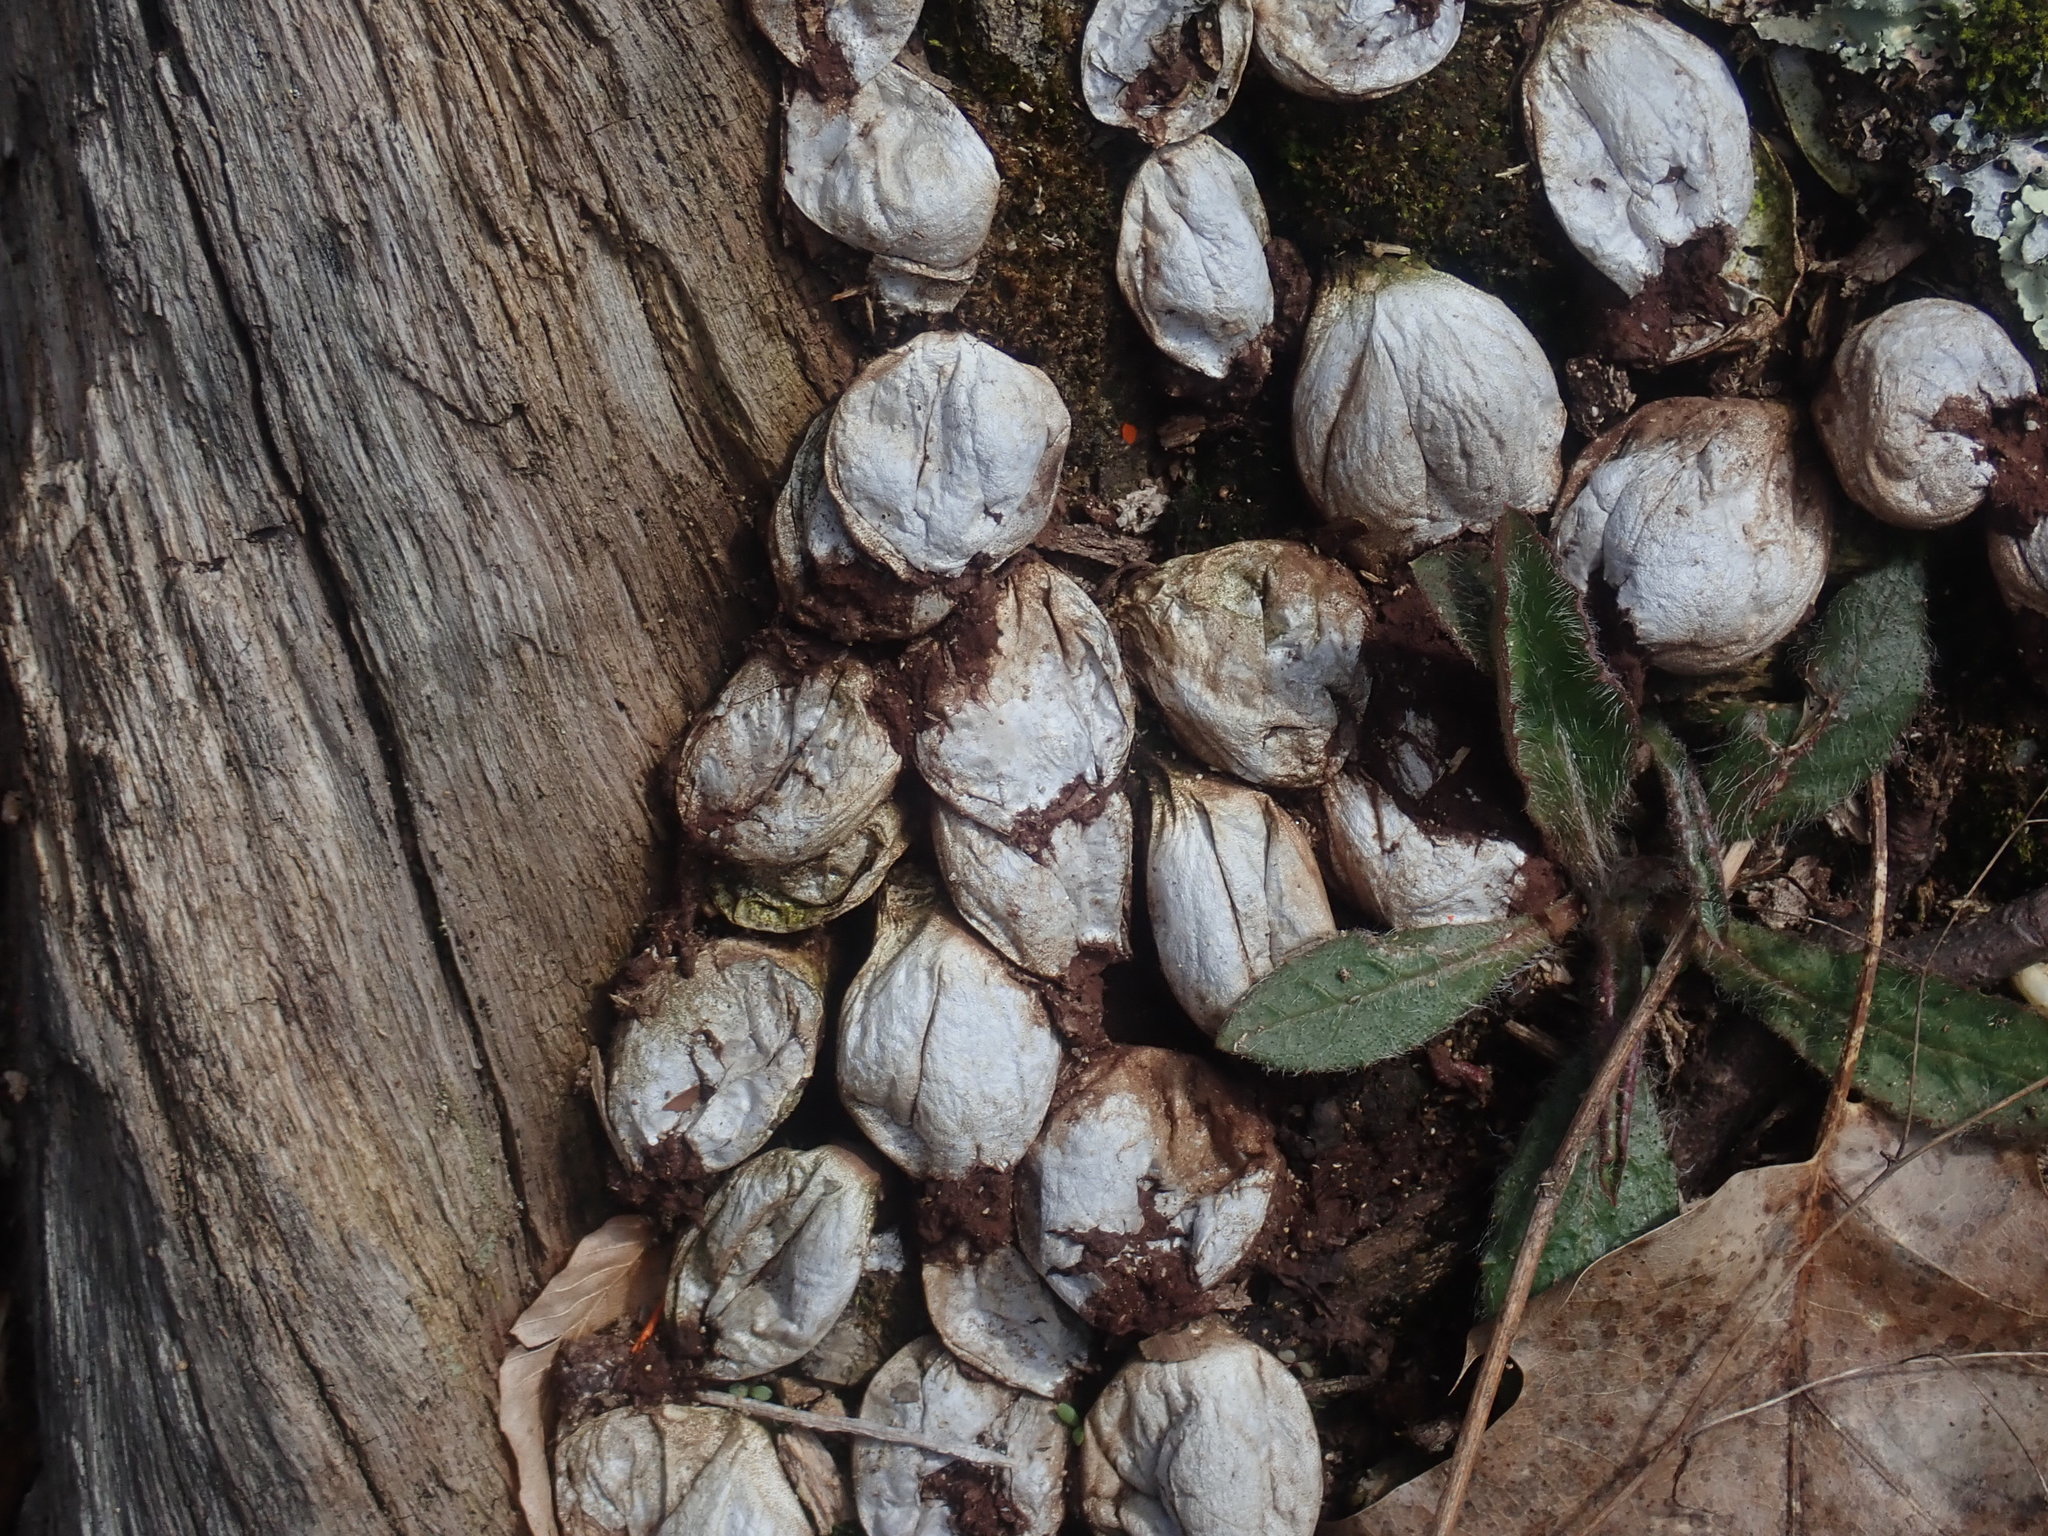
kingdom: Fungi
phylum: Basidiomycota
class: Agaricomycetes
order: Agaricales
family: Lycoperdaceae
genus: Apioperdon
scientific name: Apioperdon pyriforme
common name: Pear-shaped puffball
